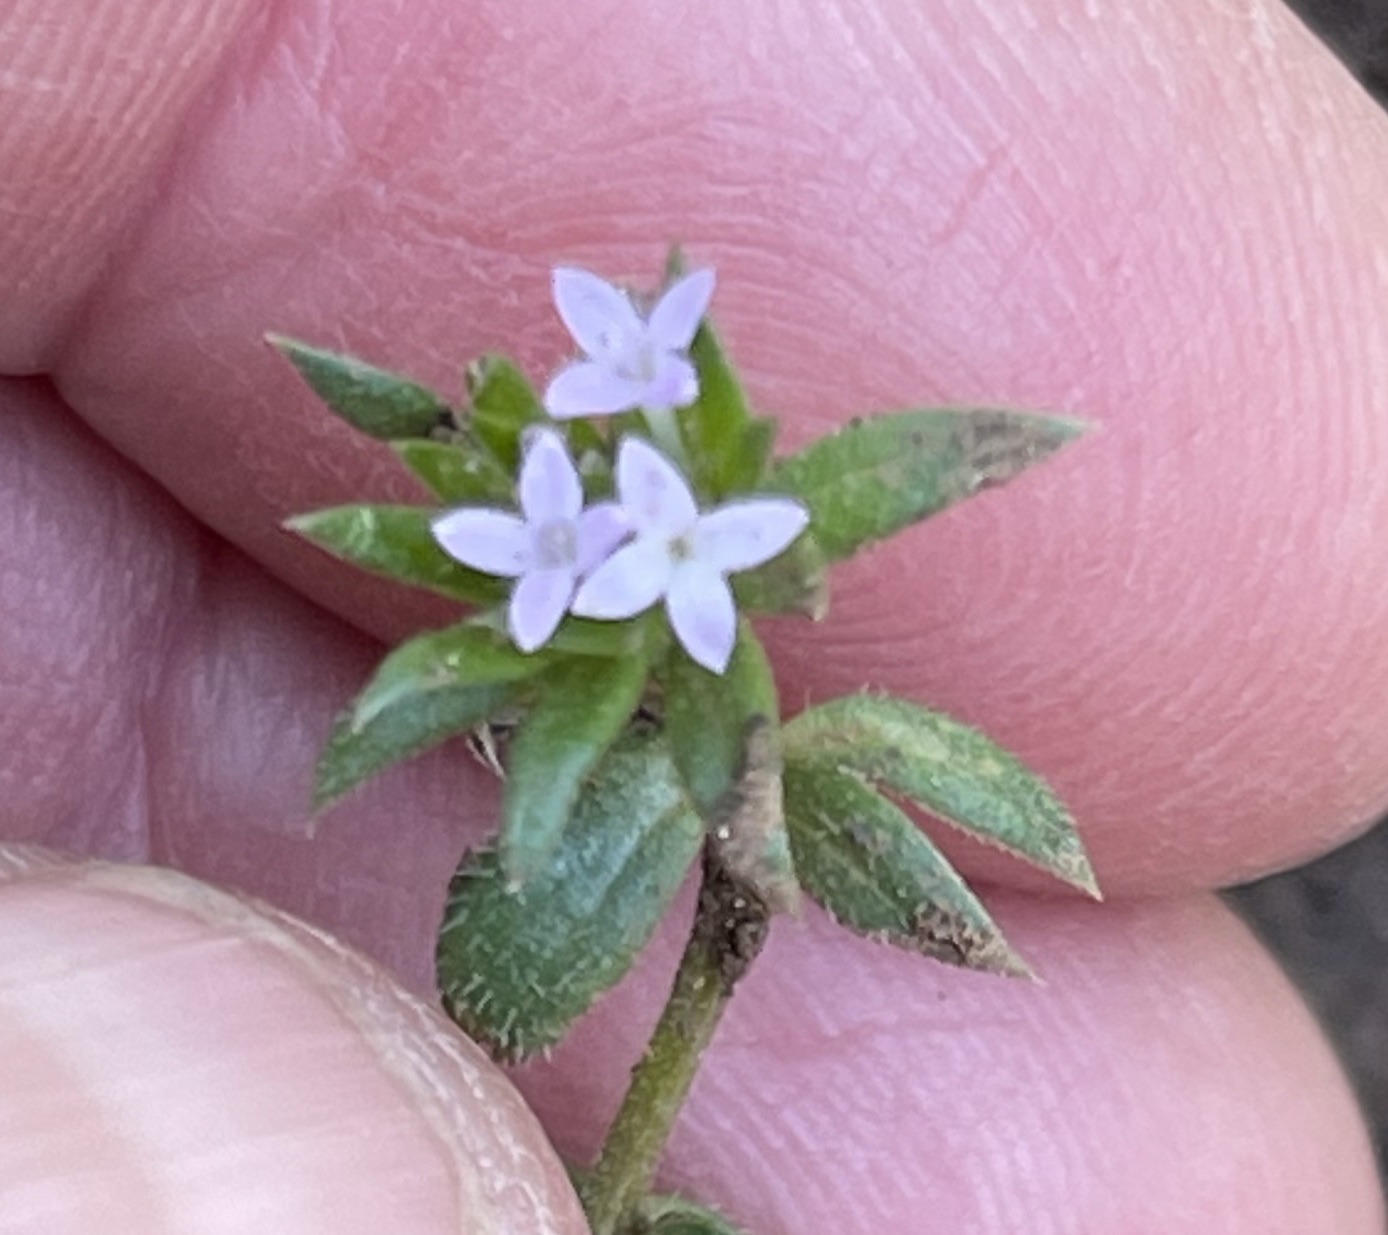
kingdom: Plantae
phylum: Tracheophyta
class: Magnoliopsida
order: Gentianales
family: Rubiaceae
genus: Sherardia
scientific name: Sherardia arvensis
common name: Field madder
